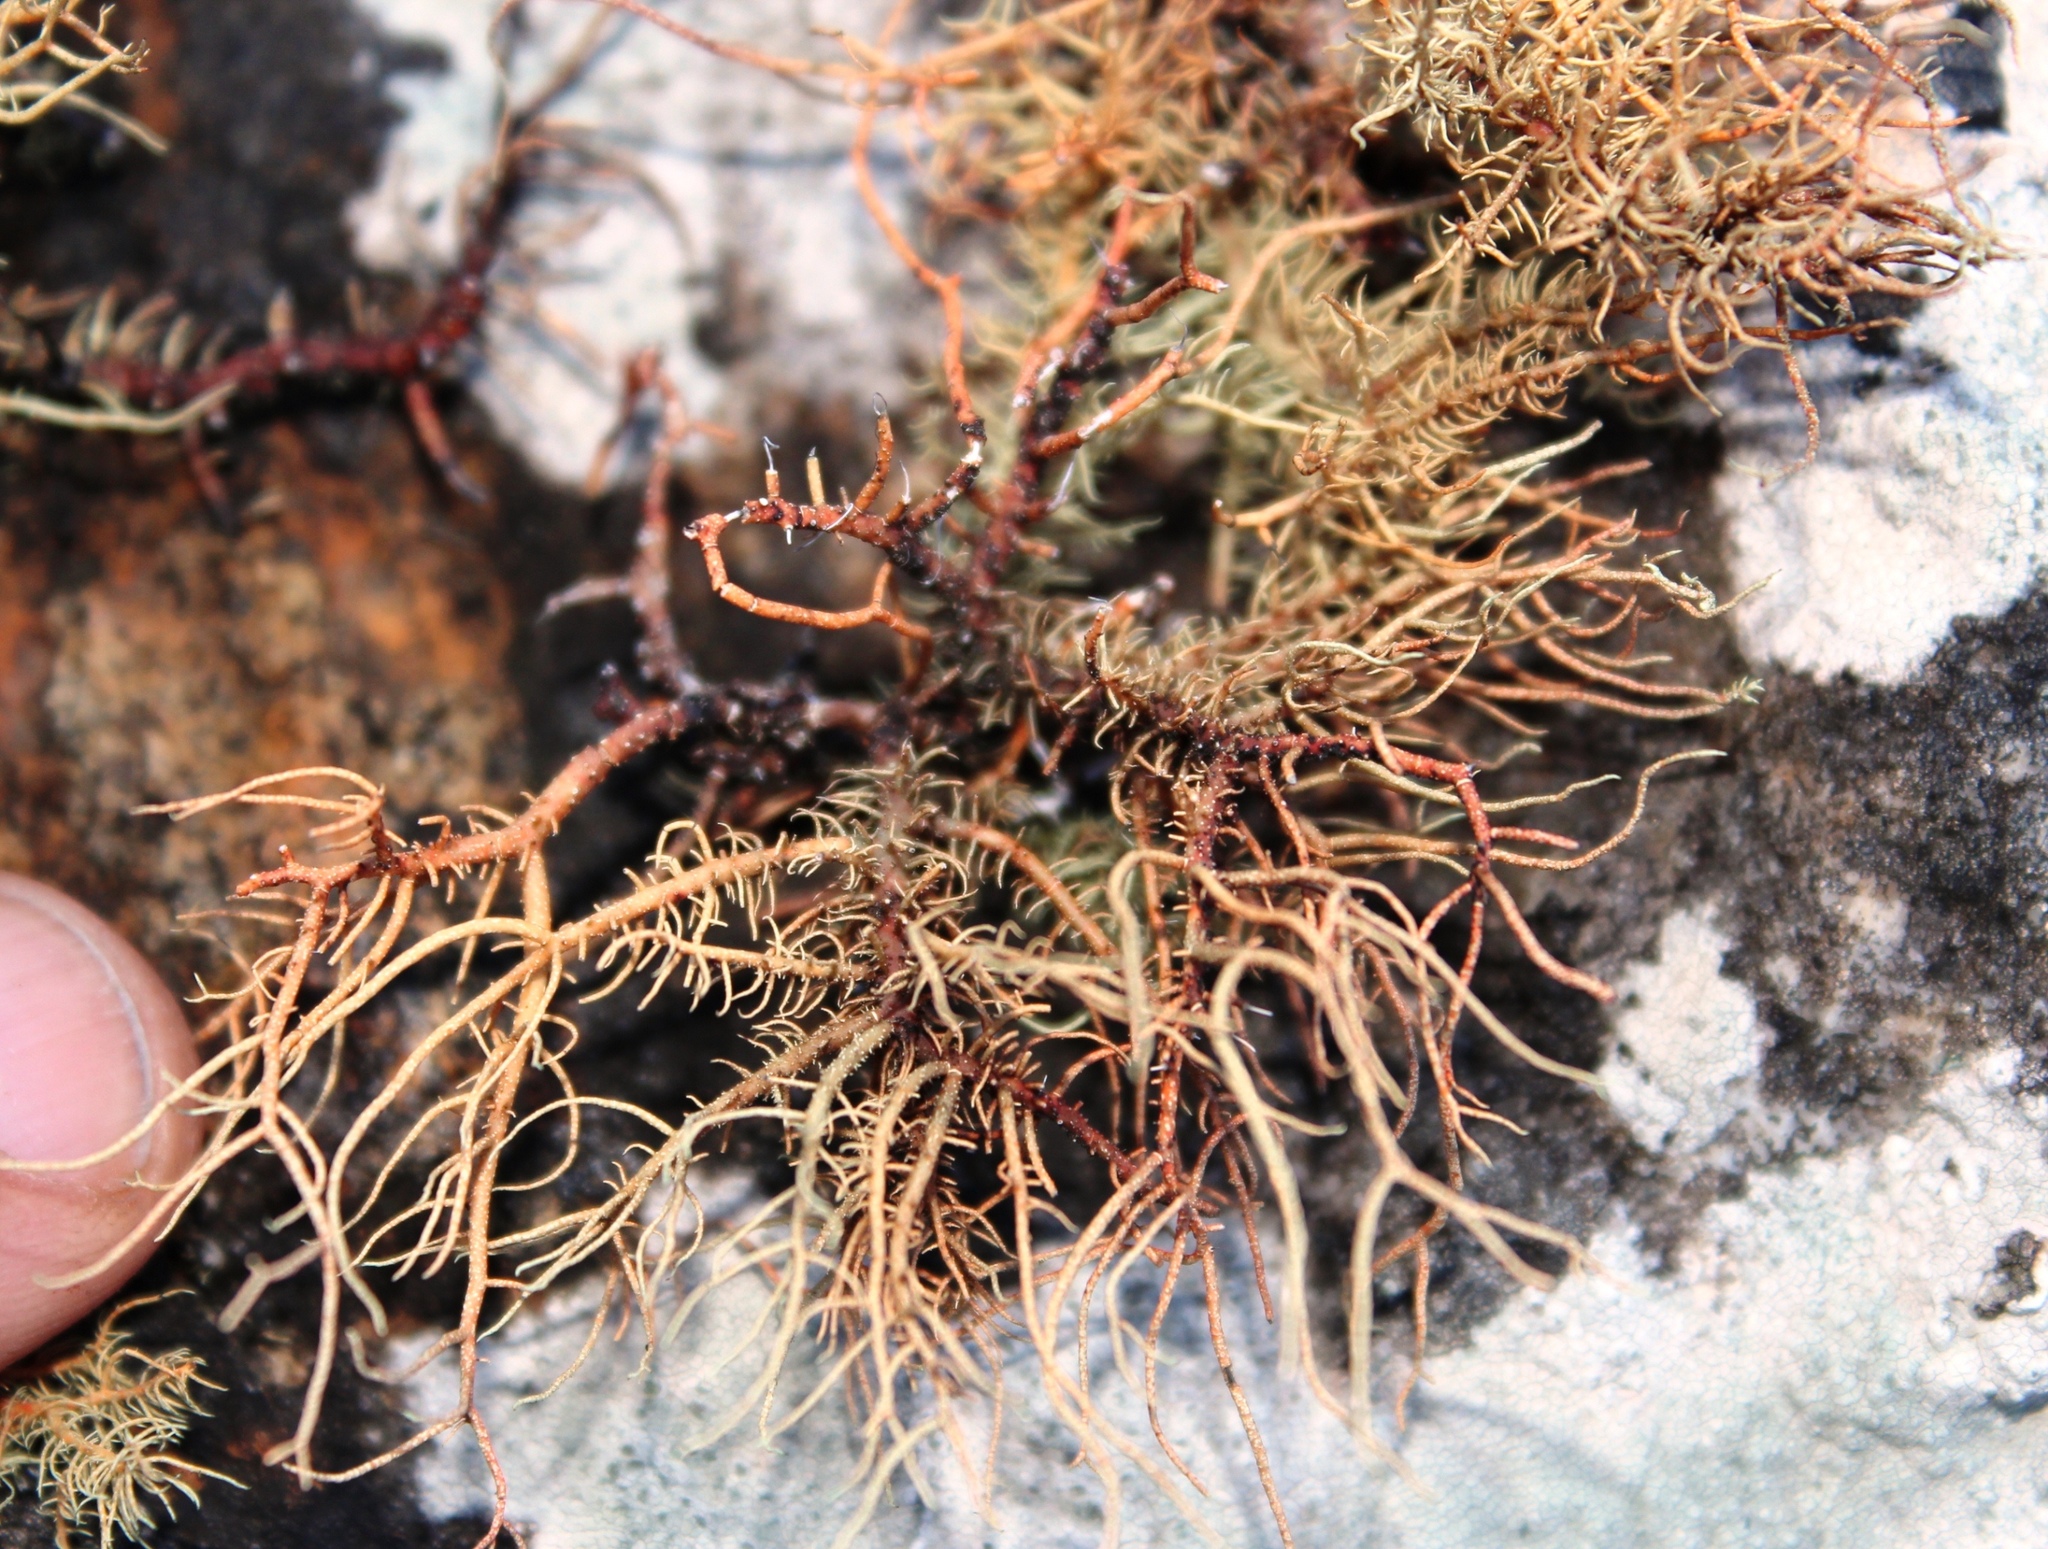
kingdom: Fungi
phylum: Ascomycota
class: Lecanoromycetes
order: Lecanorales
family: Parmeliaceae
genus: Usnea
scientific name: Usnea maculata
